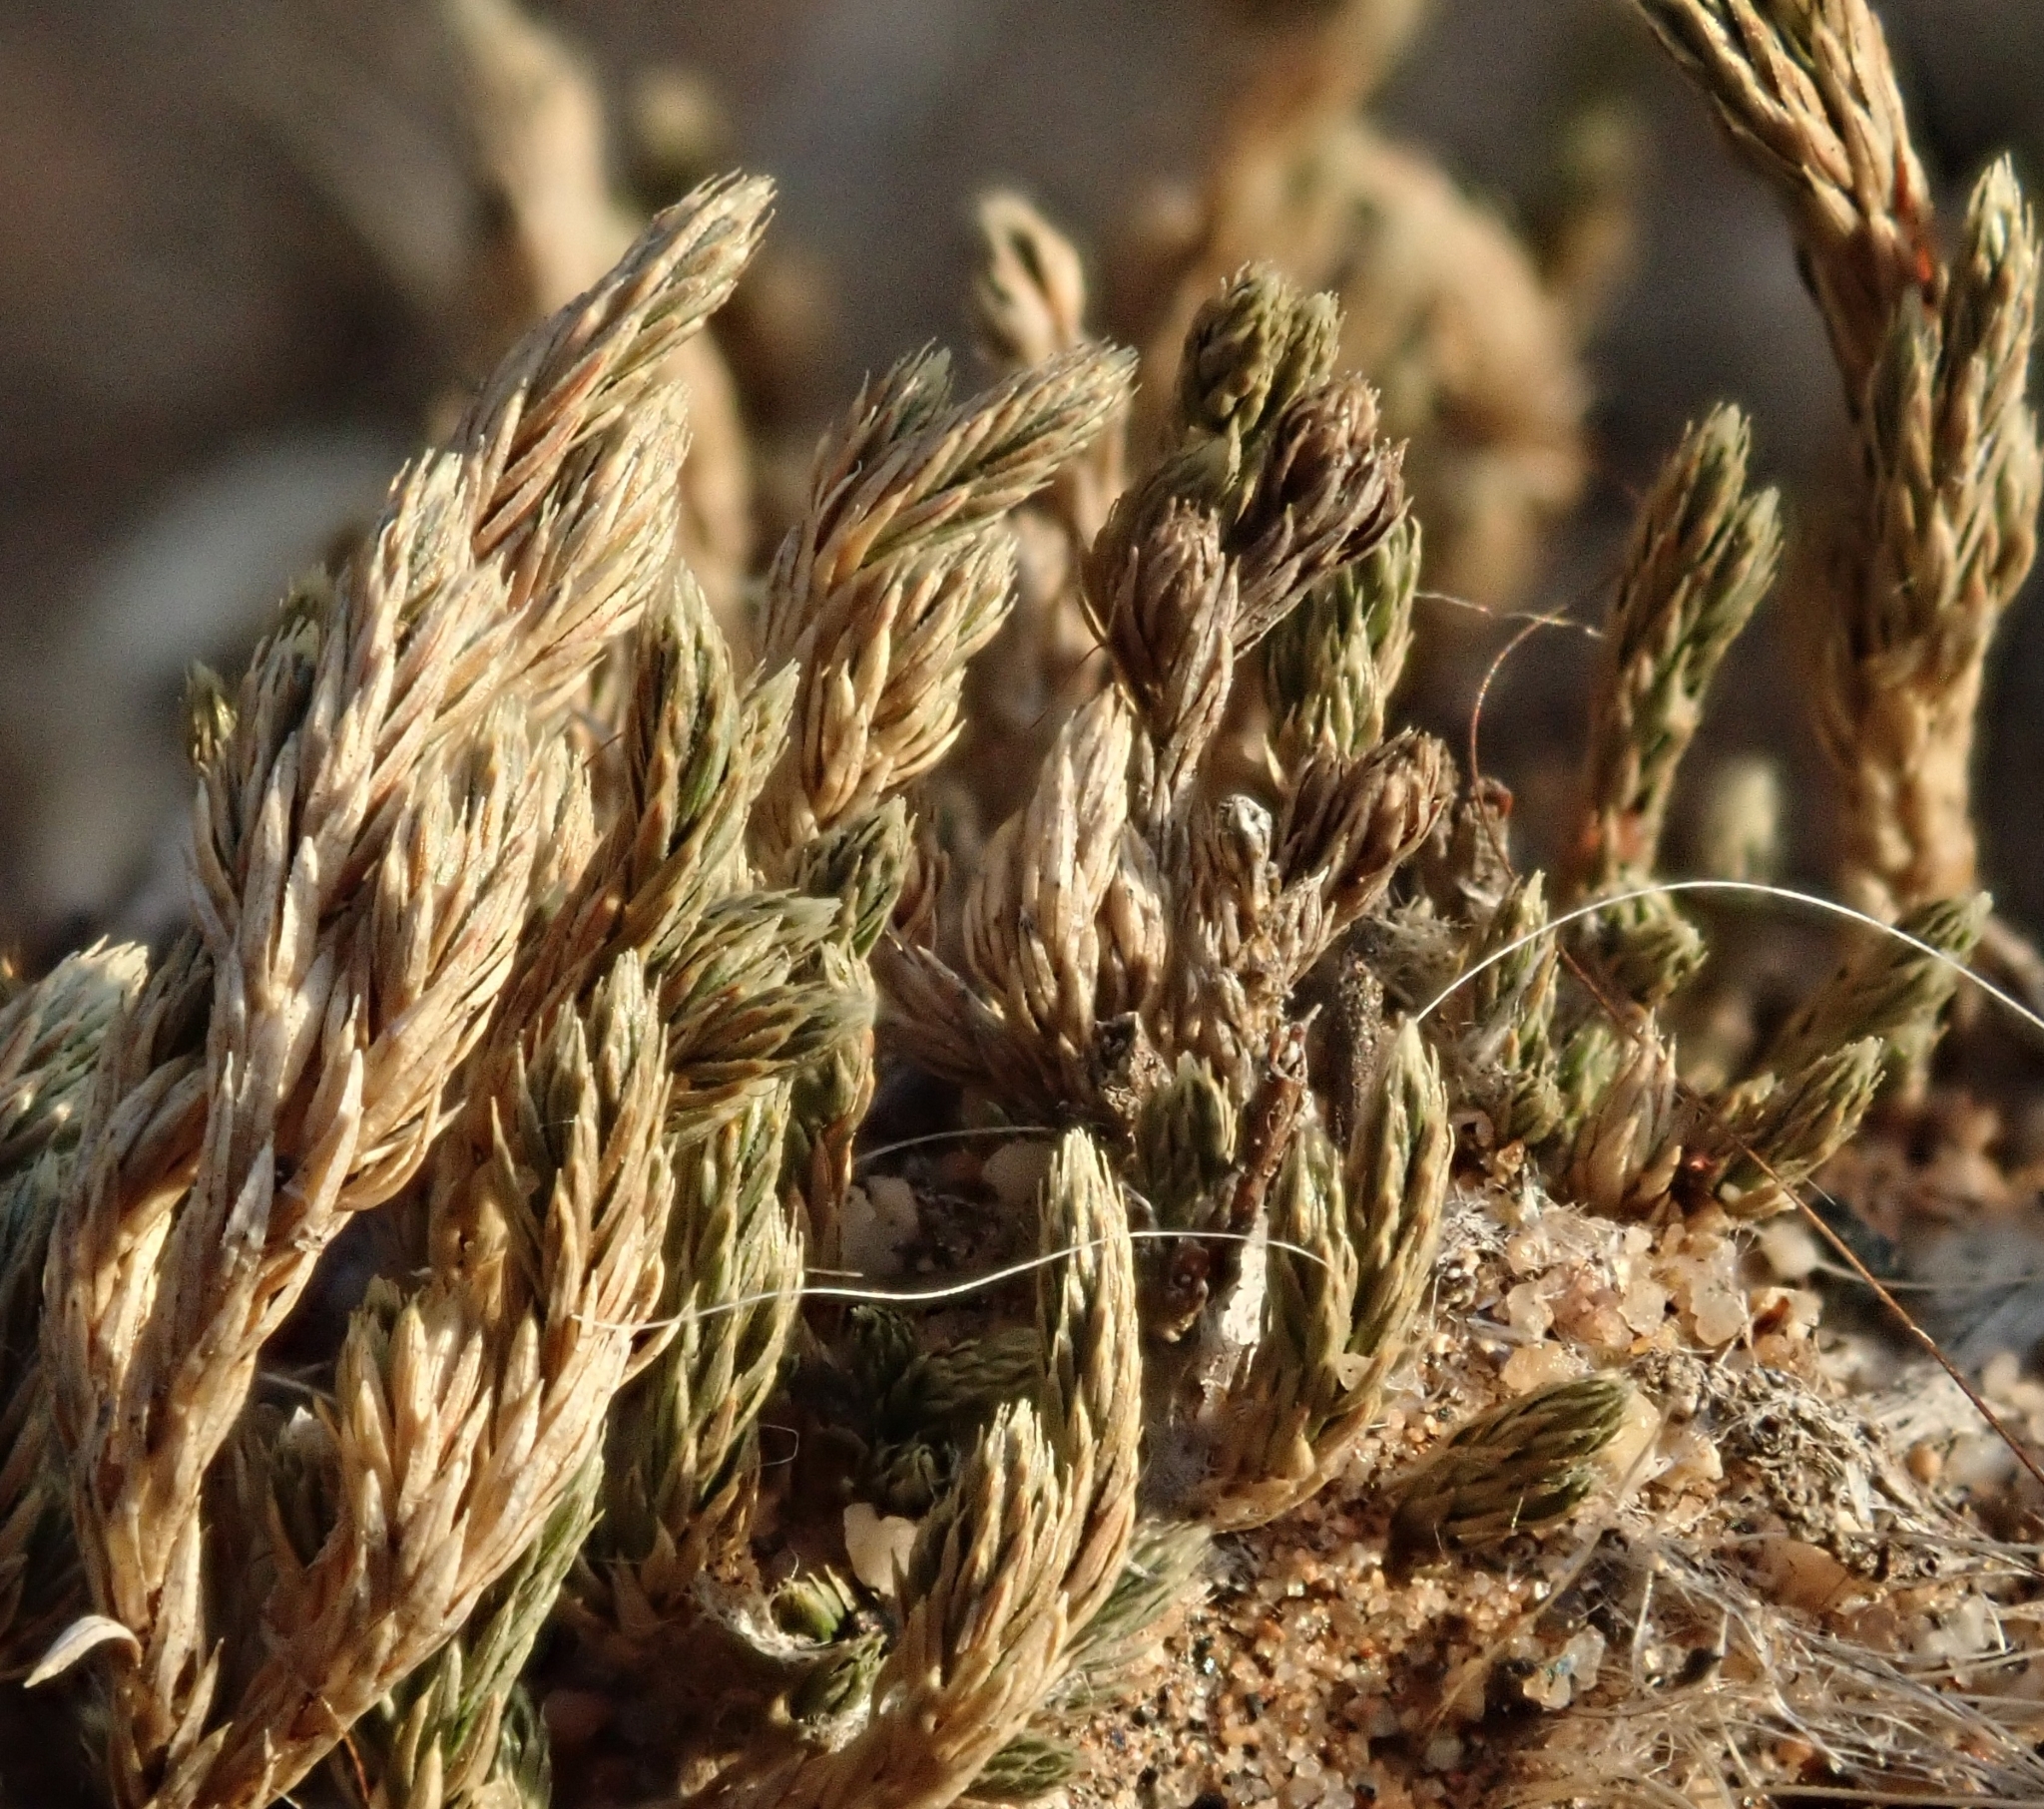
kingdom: Plantae
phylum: Tracheophyta
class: Lycopodiopsida
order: Selaginellales
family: Selaginellaceae
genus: Selaginella
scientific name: Selaginella bigelovii
